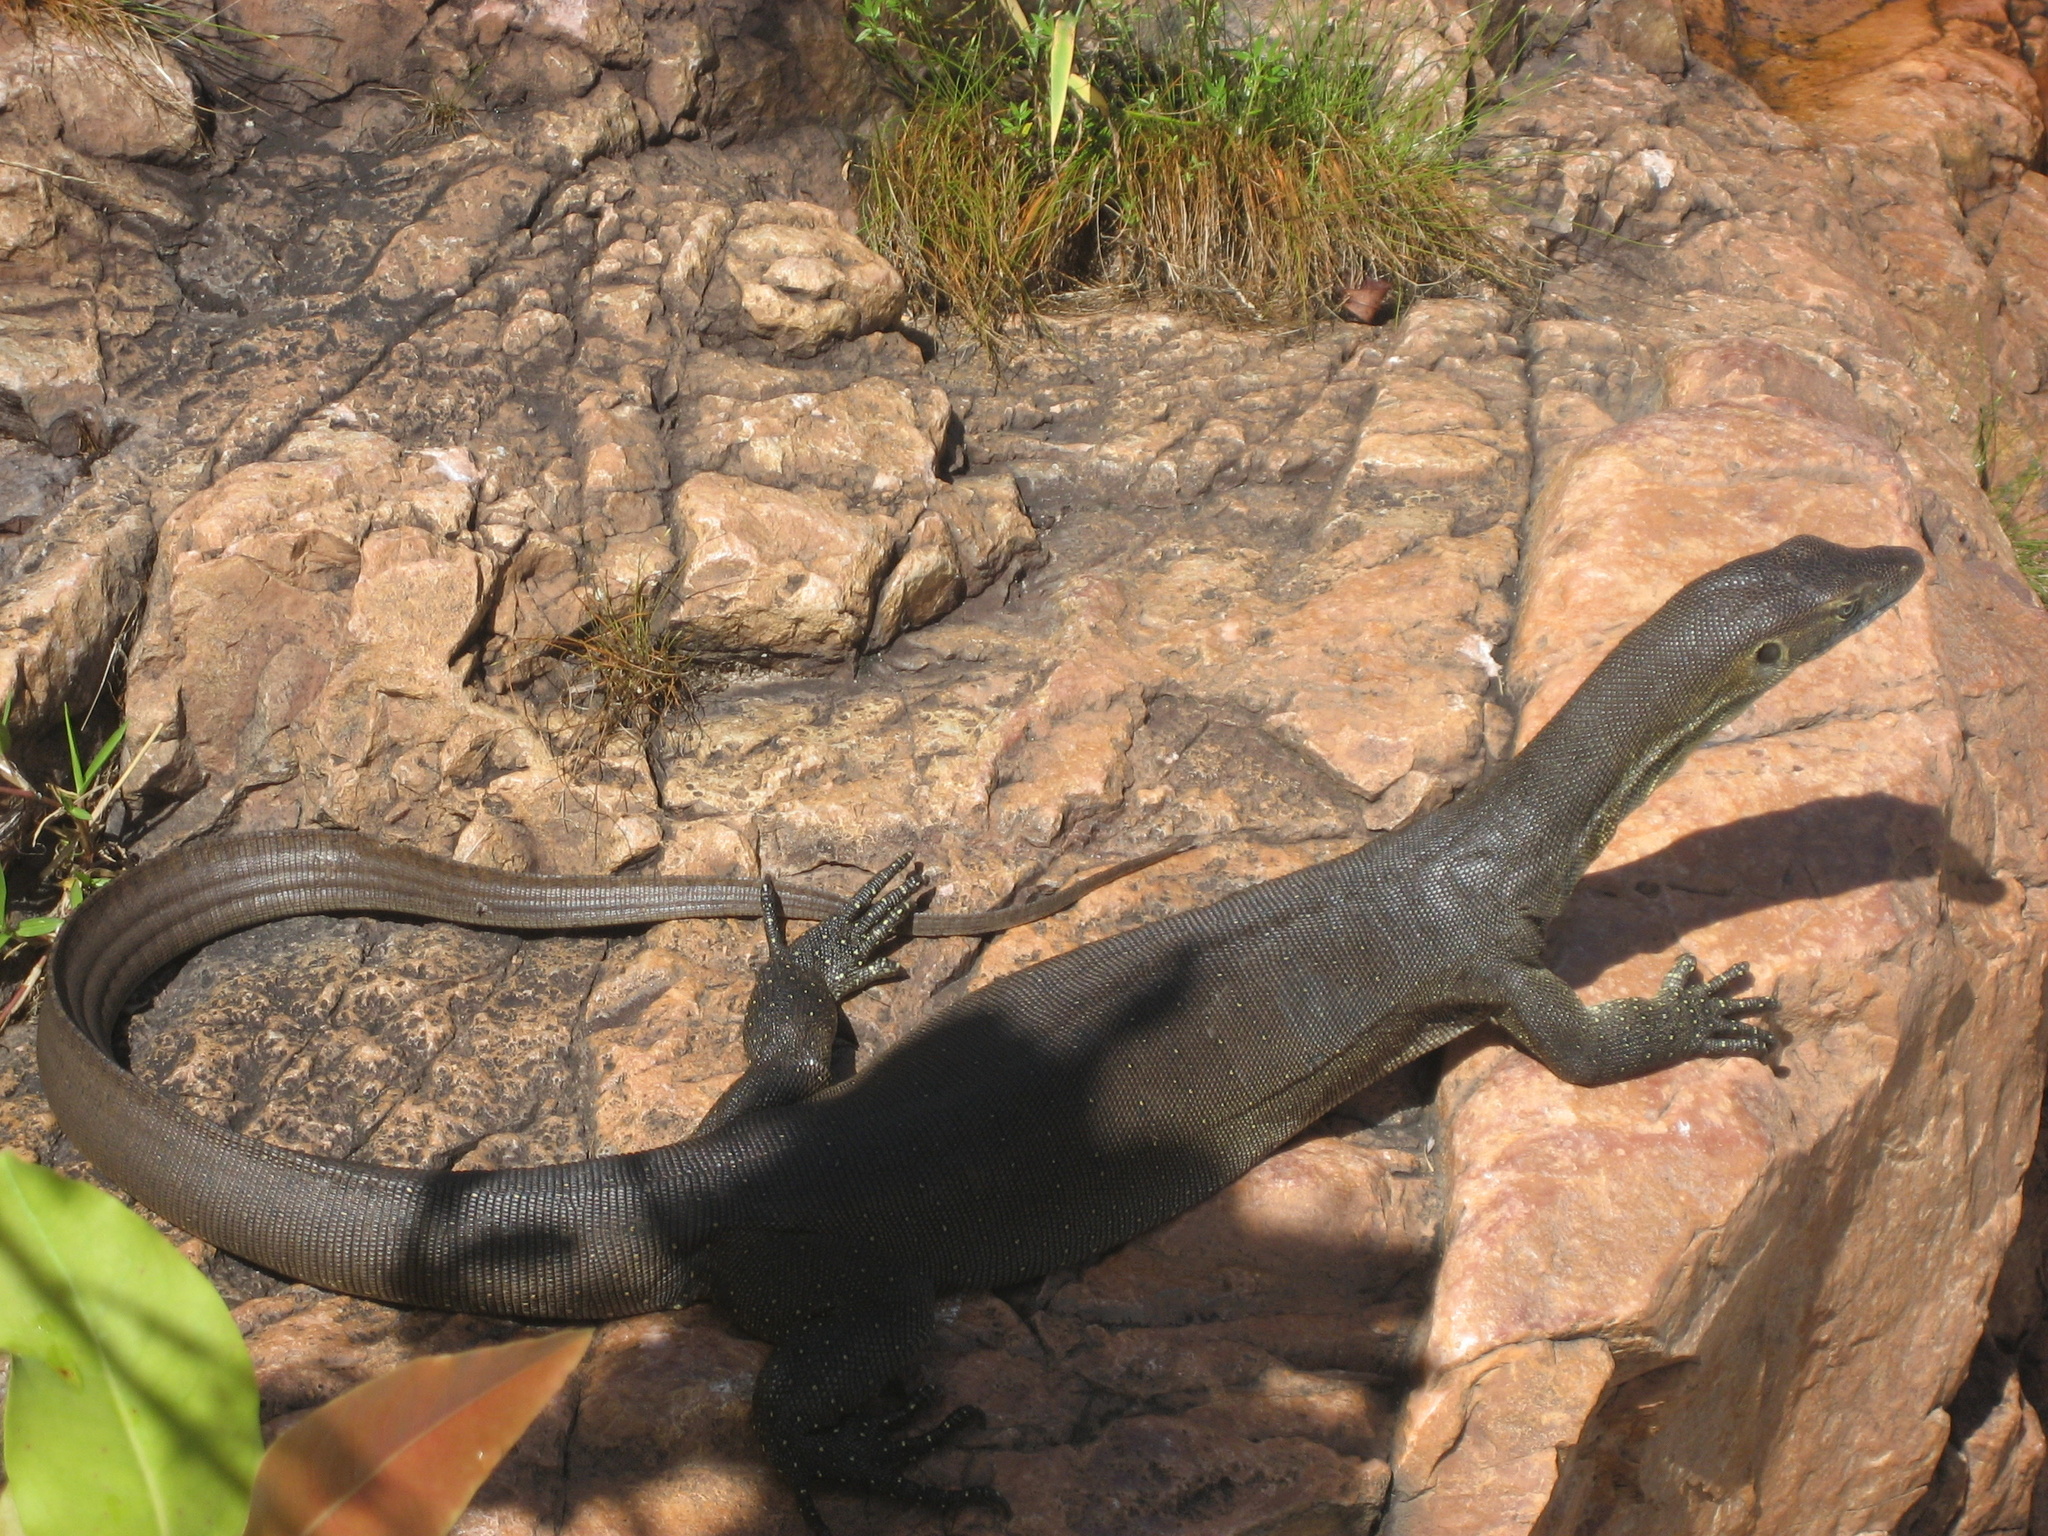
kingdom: Animalia
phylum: Chordata
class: Squamata
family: Varanidae
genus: Varanus
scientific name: Varanus mertensi
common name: Mertens's water monitor
